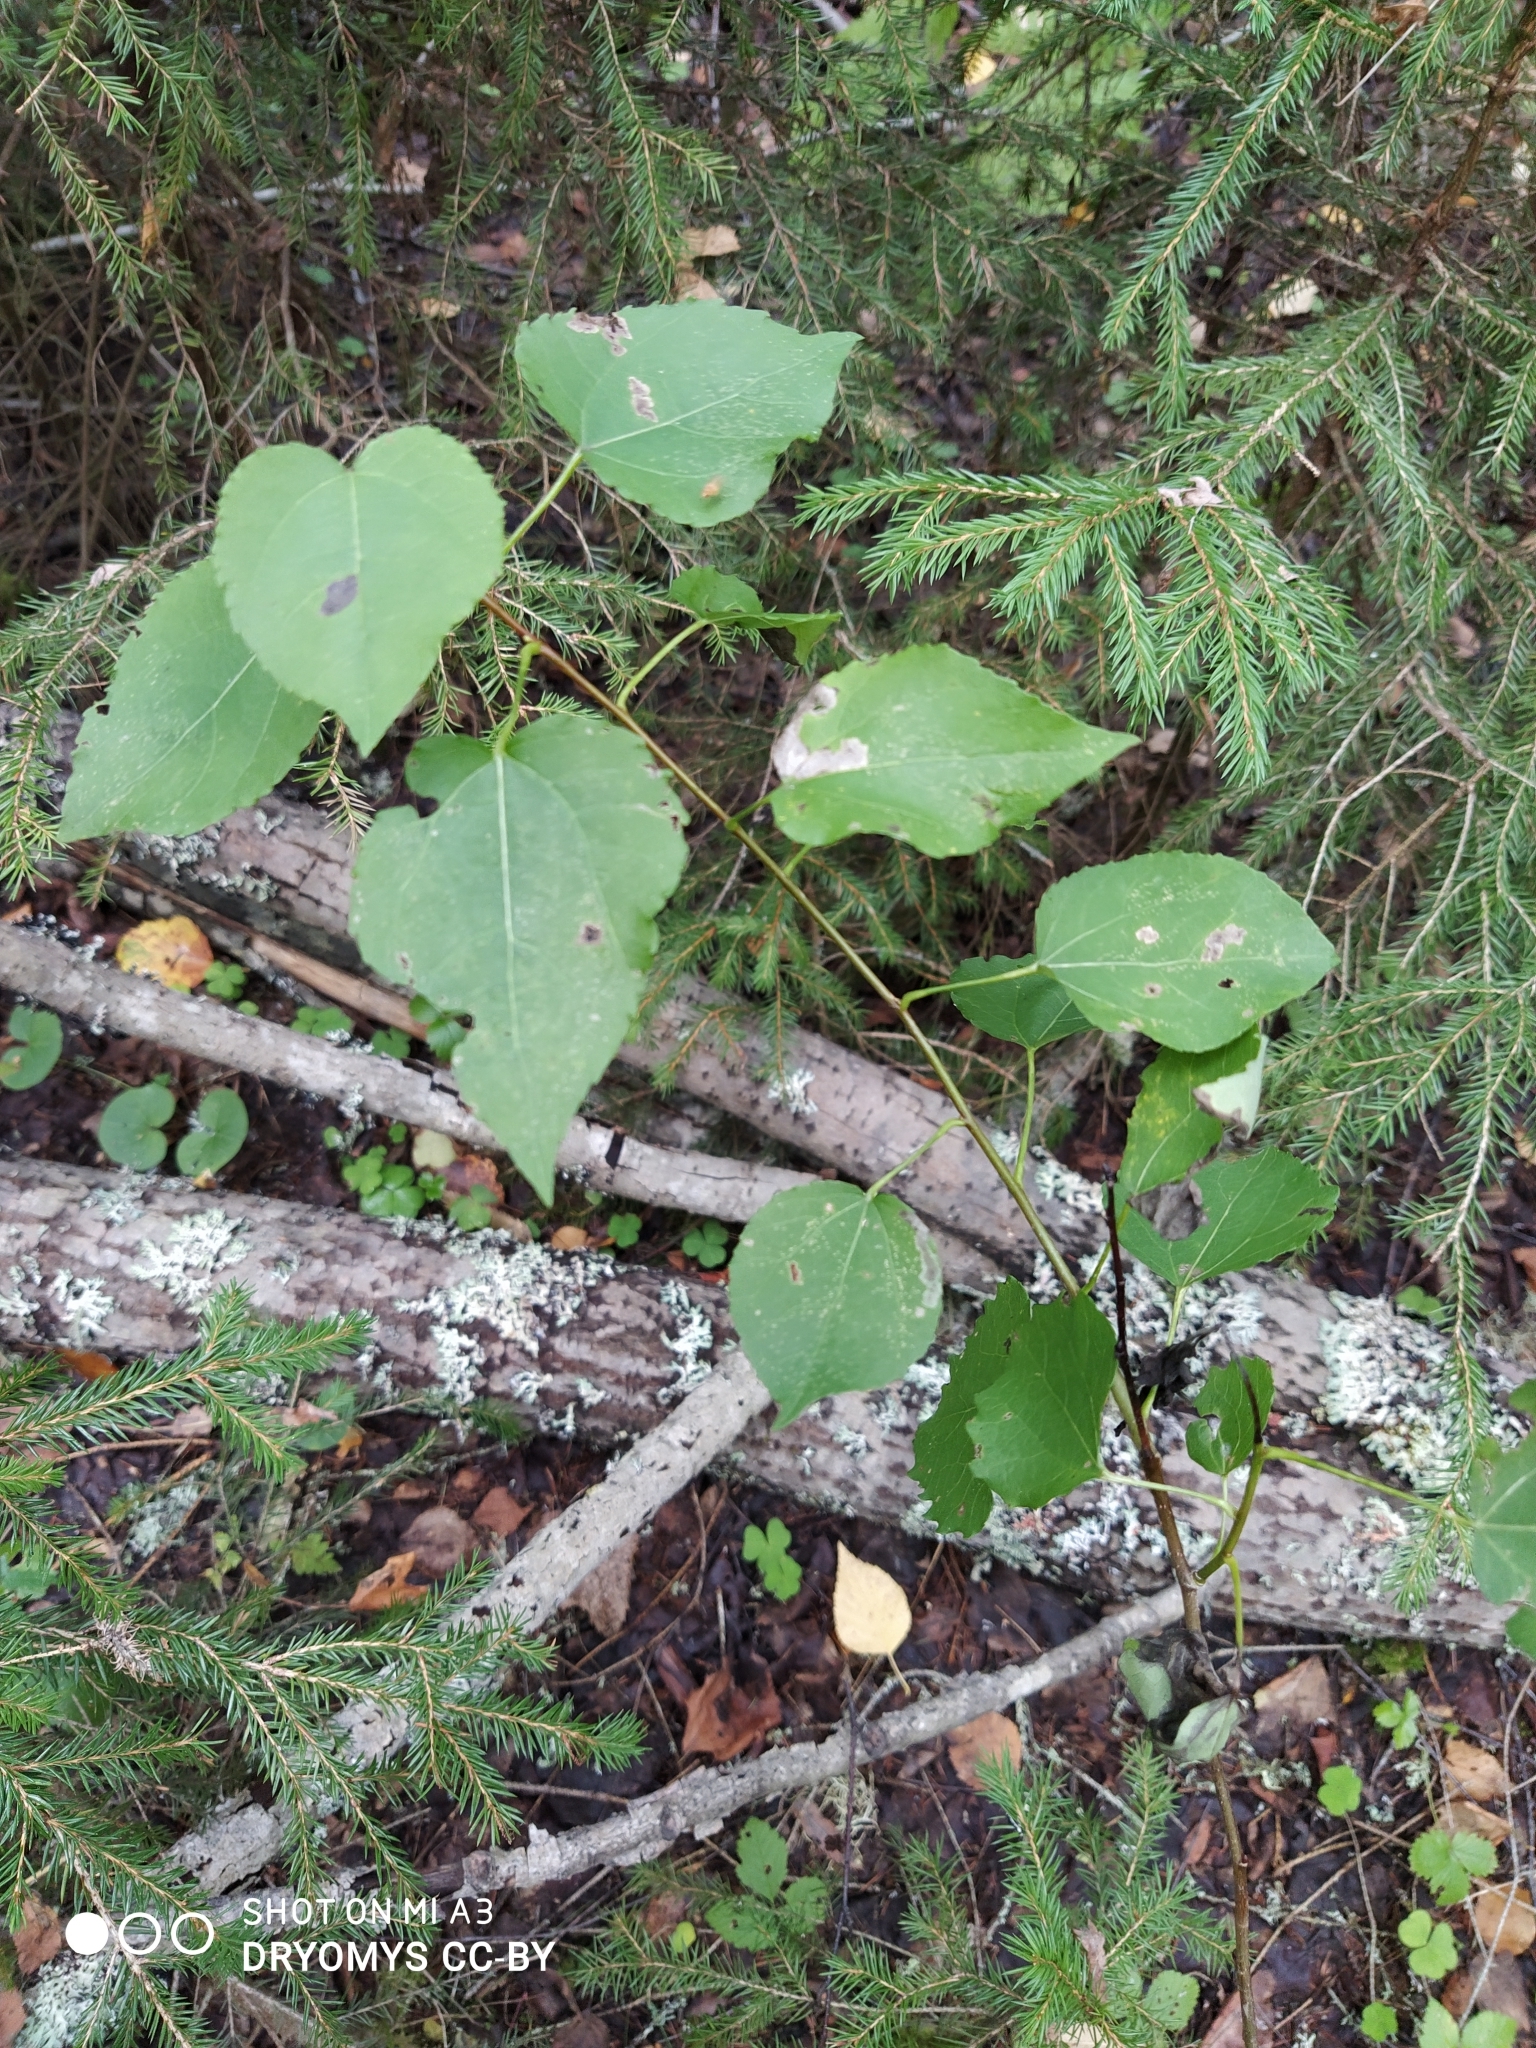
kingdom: Plantae
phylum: Tracheophyta
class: Magnoliopsida
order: Malpighiales
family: Salicaceae
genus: Populus
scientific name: Populus tremula
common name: European aspen
